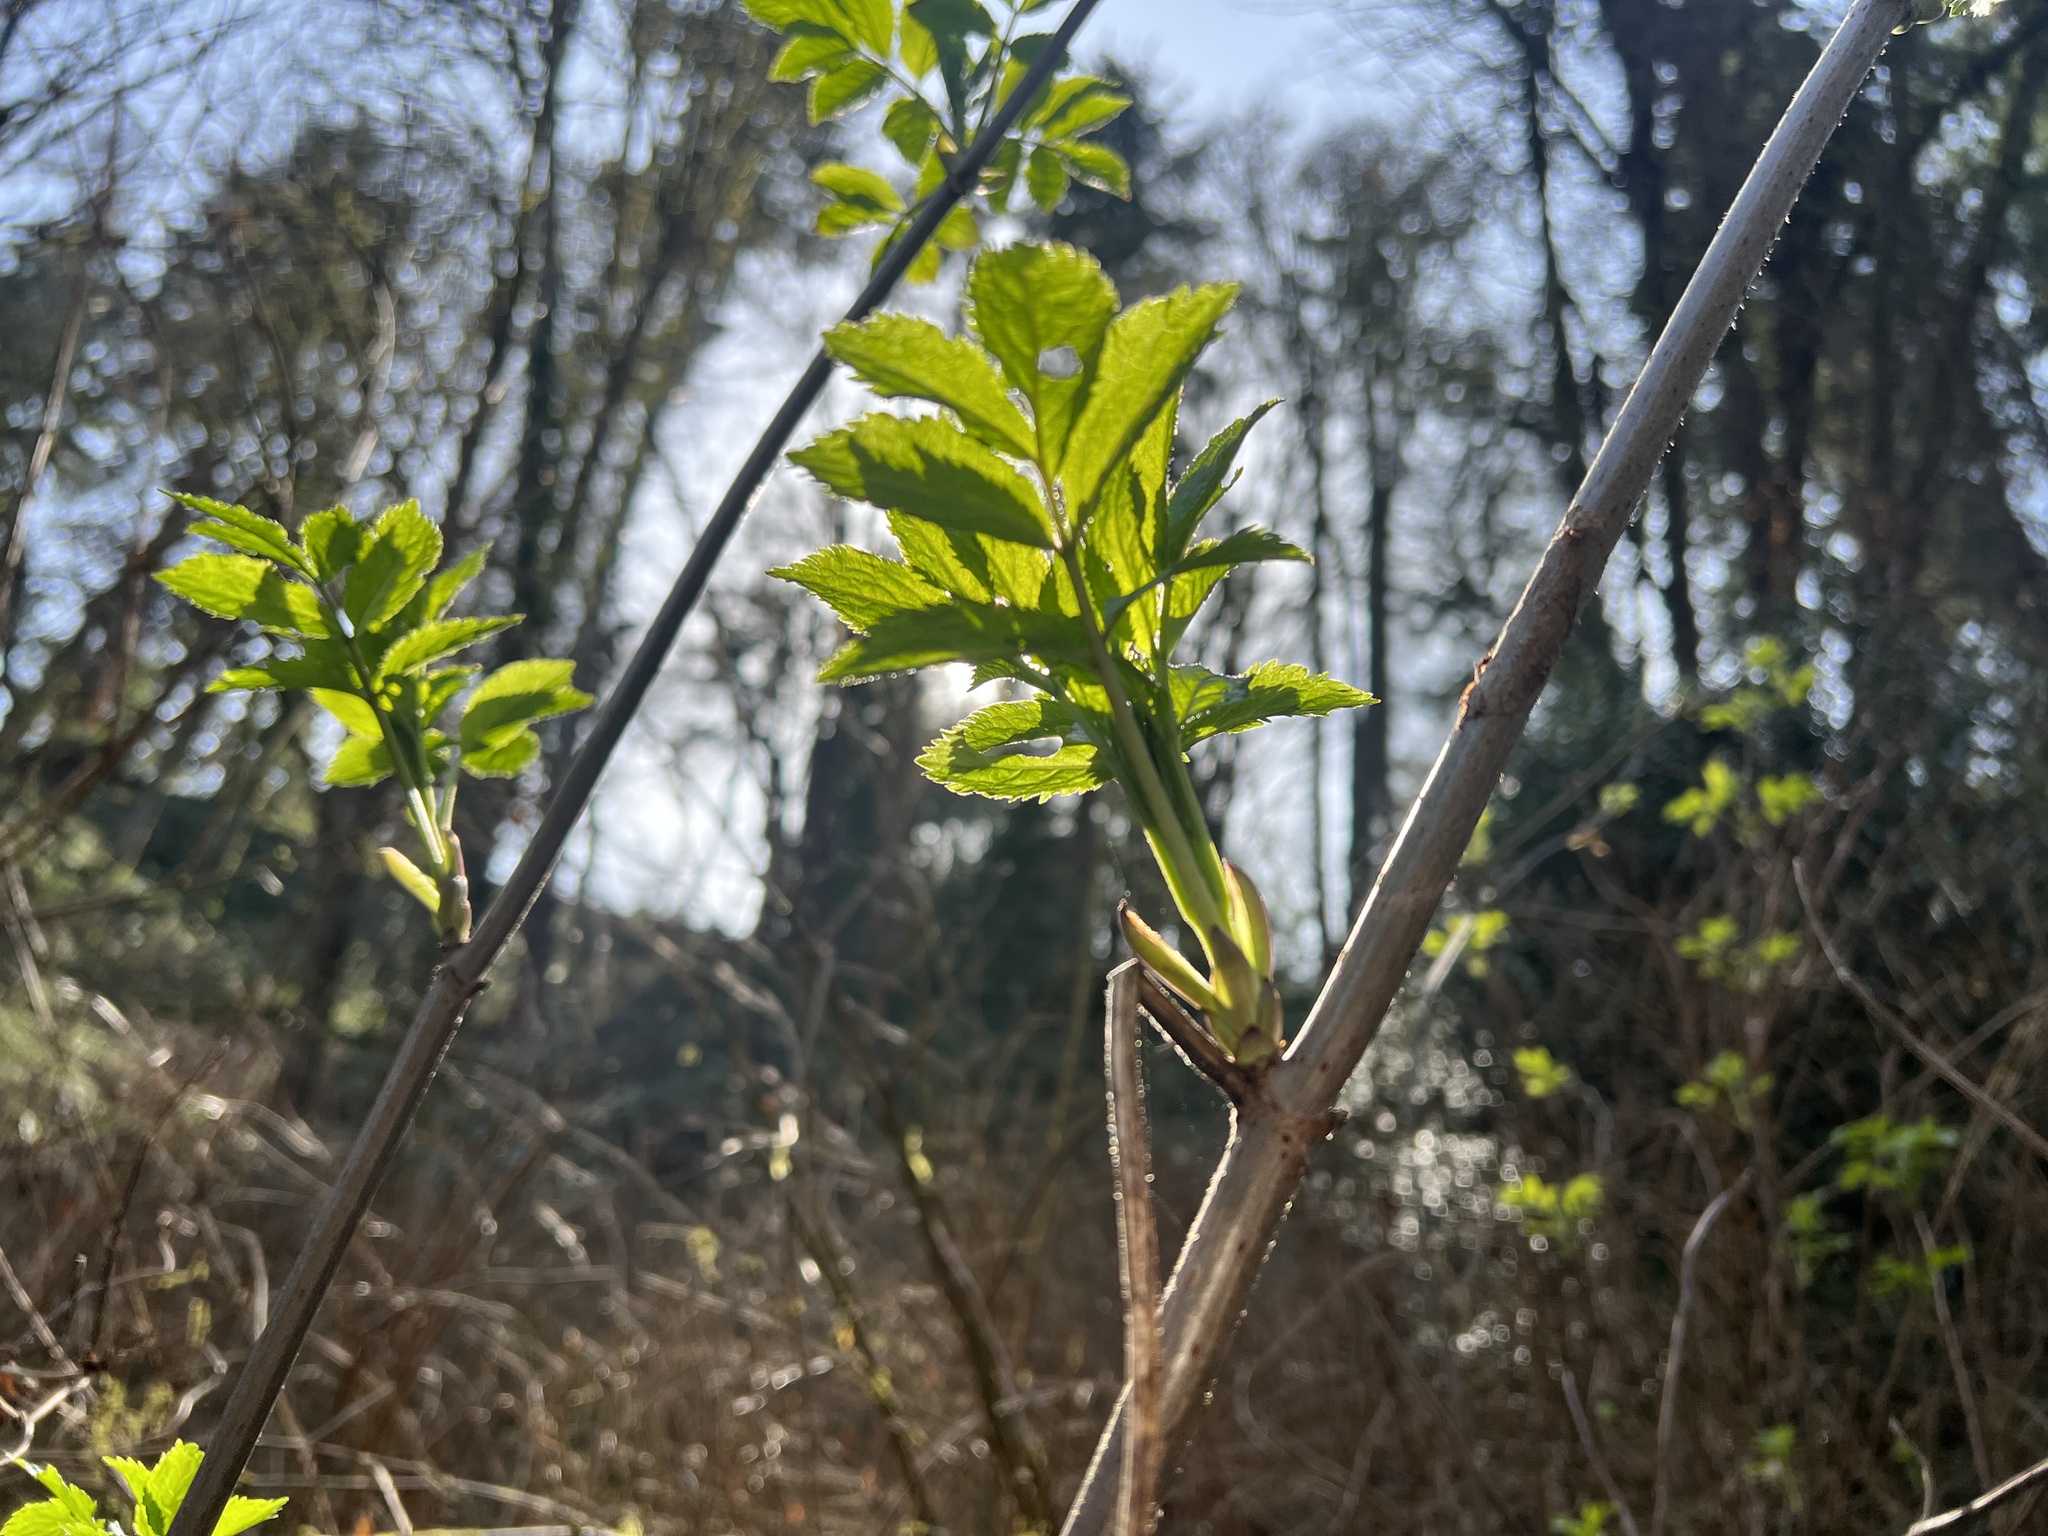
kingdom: Plantae
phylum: Tracheophyta
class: Magnoliopsida
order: Dipsacales
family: Viburnaceae
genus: Sambucus
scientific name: Sambucus racemosa
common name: Red-berried elder
